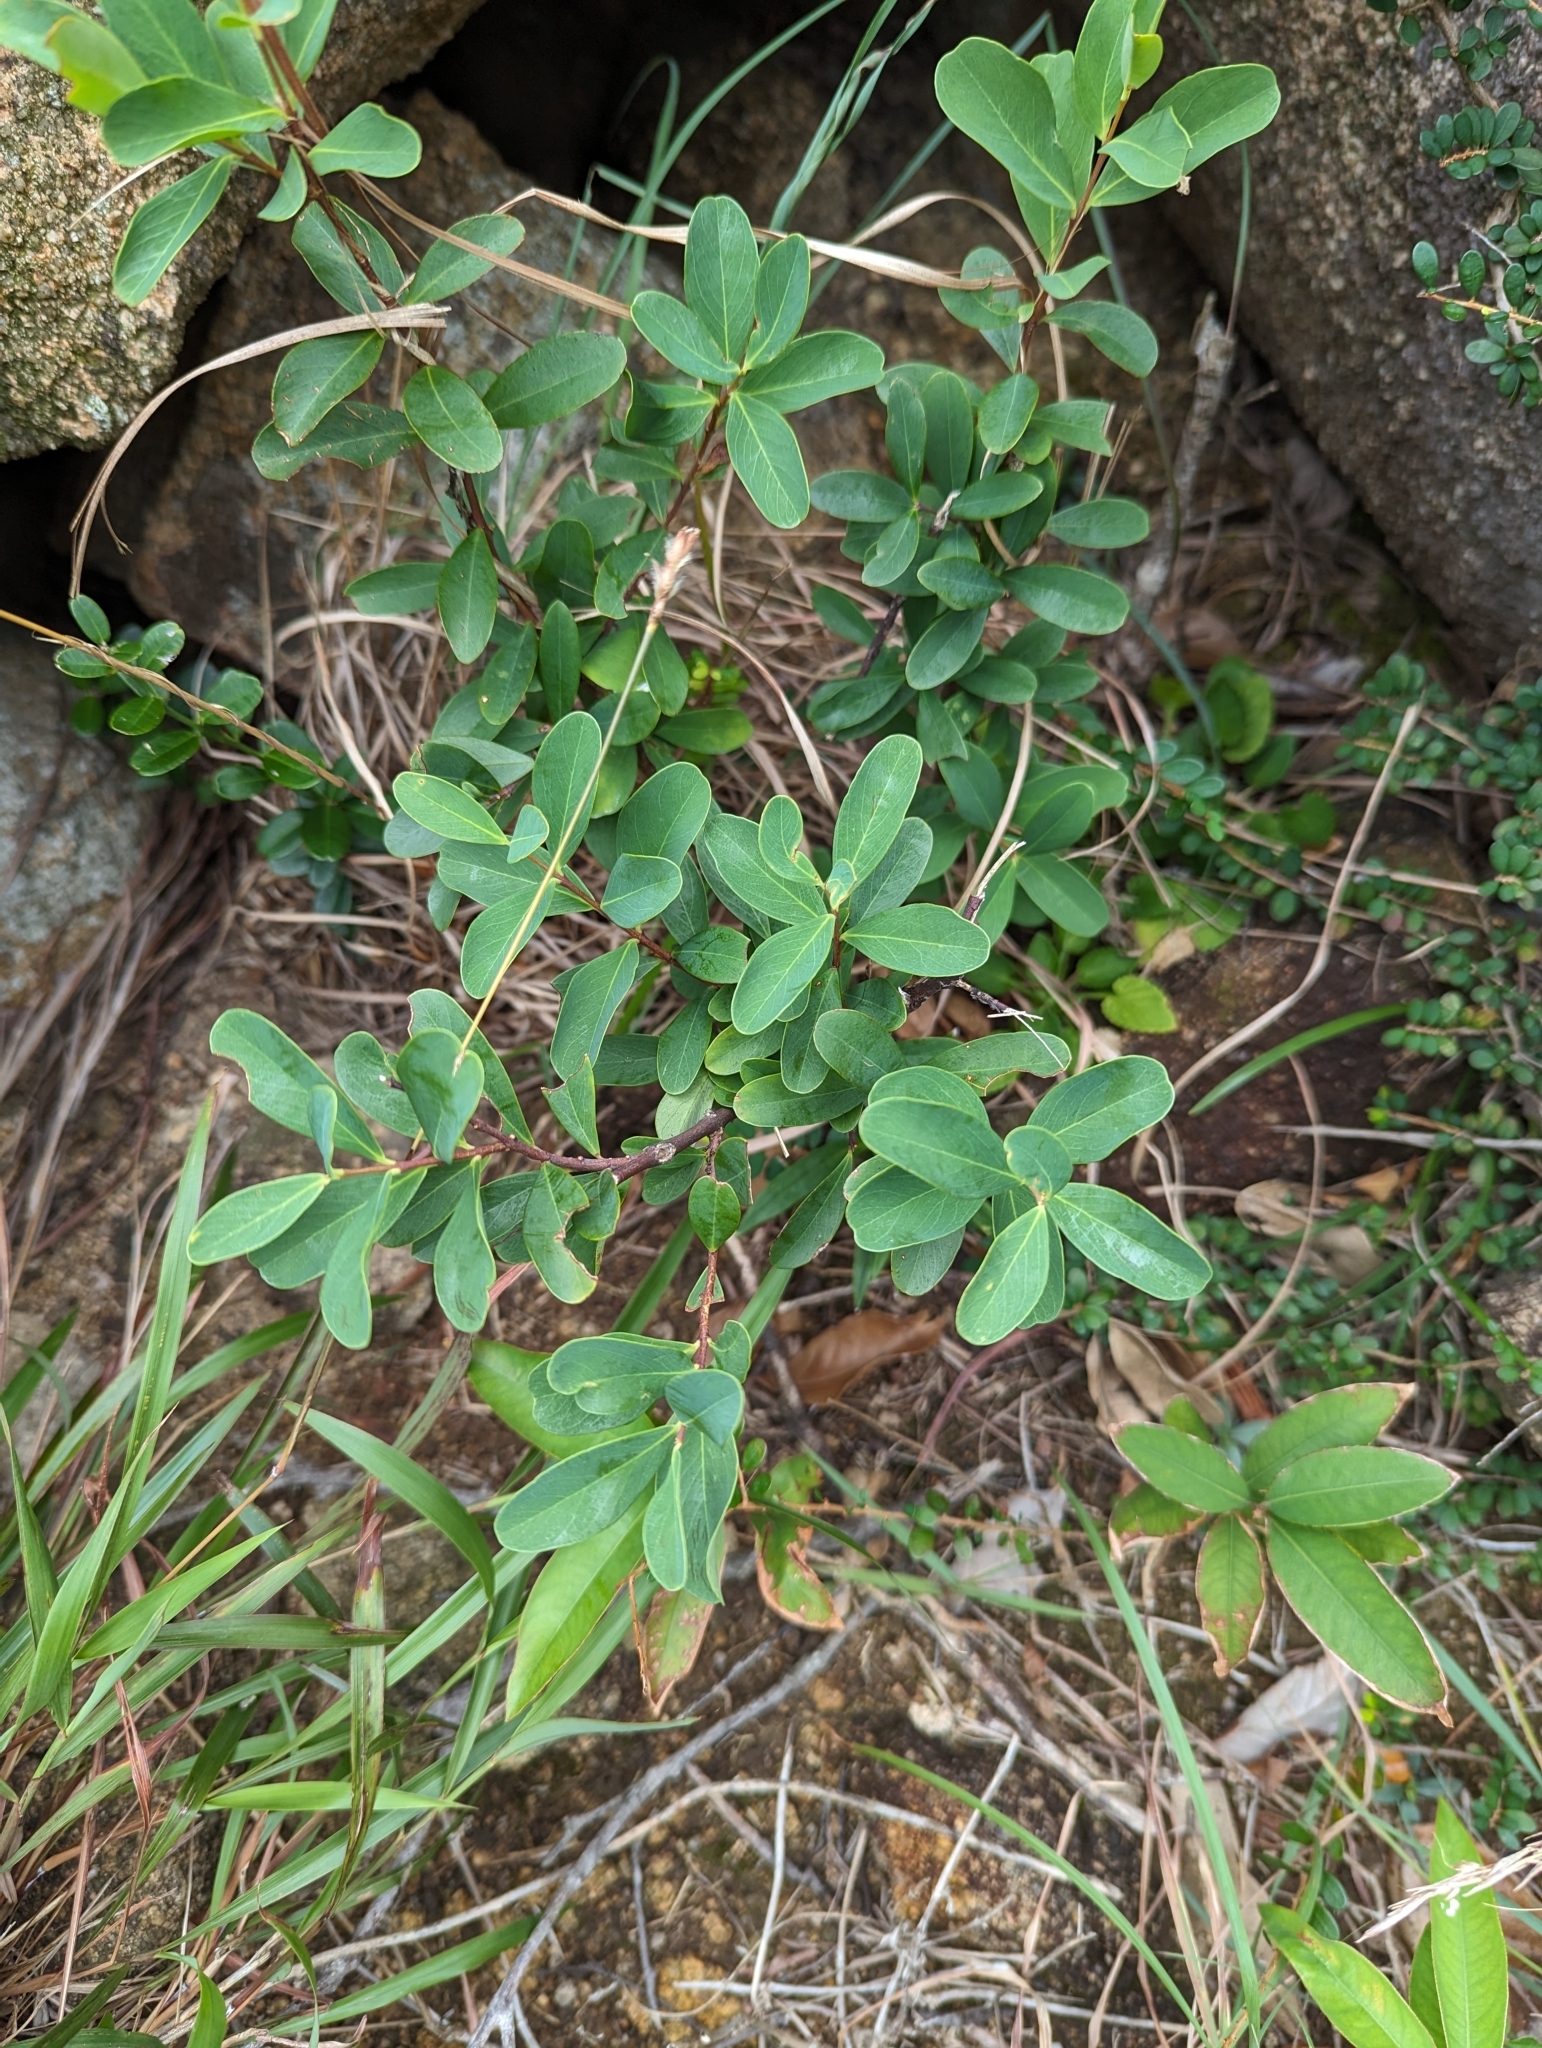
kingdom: Plantae
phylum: Tracheophyta
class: Magnoliopsida
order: Malvales
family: Thymelaeaceae
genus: Wikstroemia
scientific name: Wikstroemia indica
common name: Tiebush
